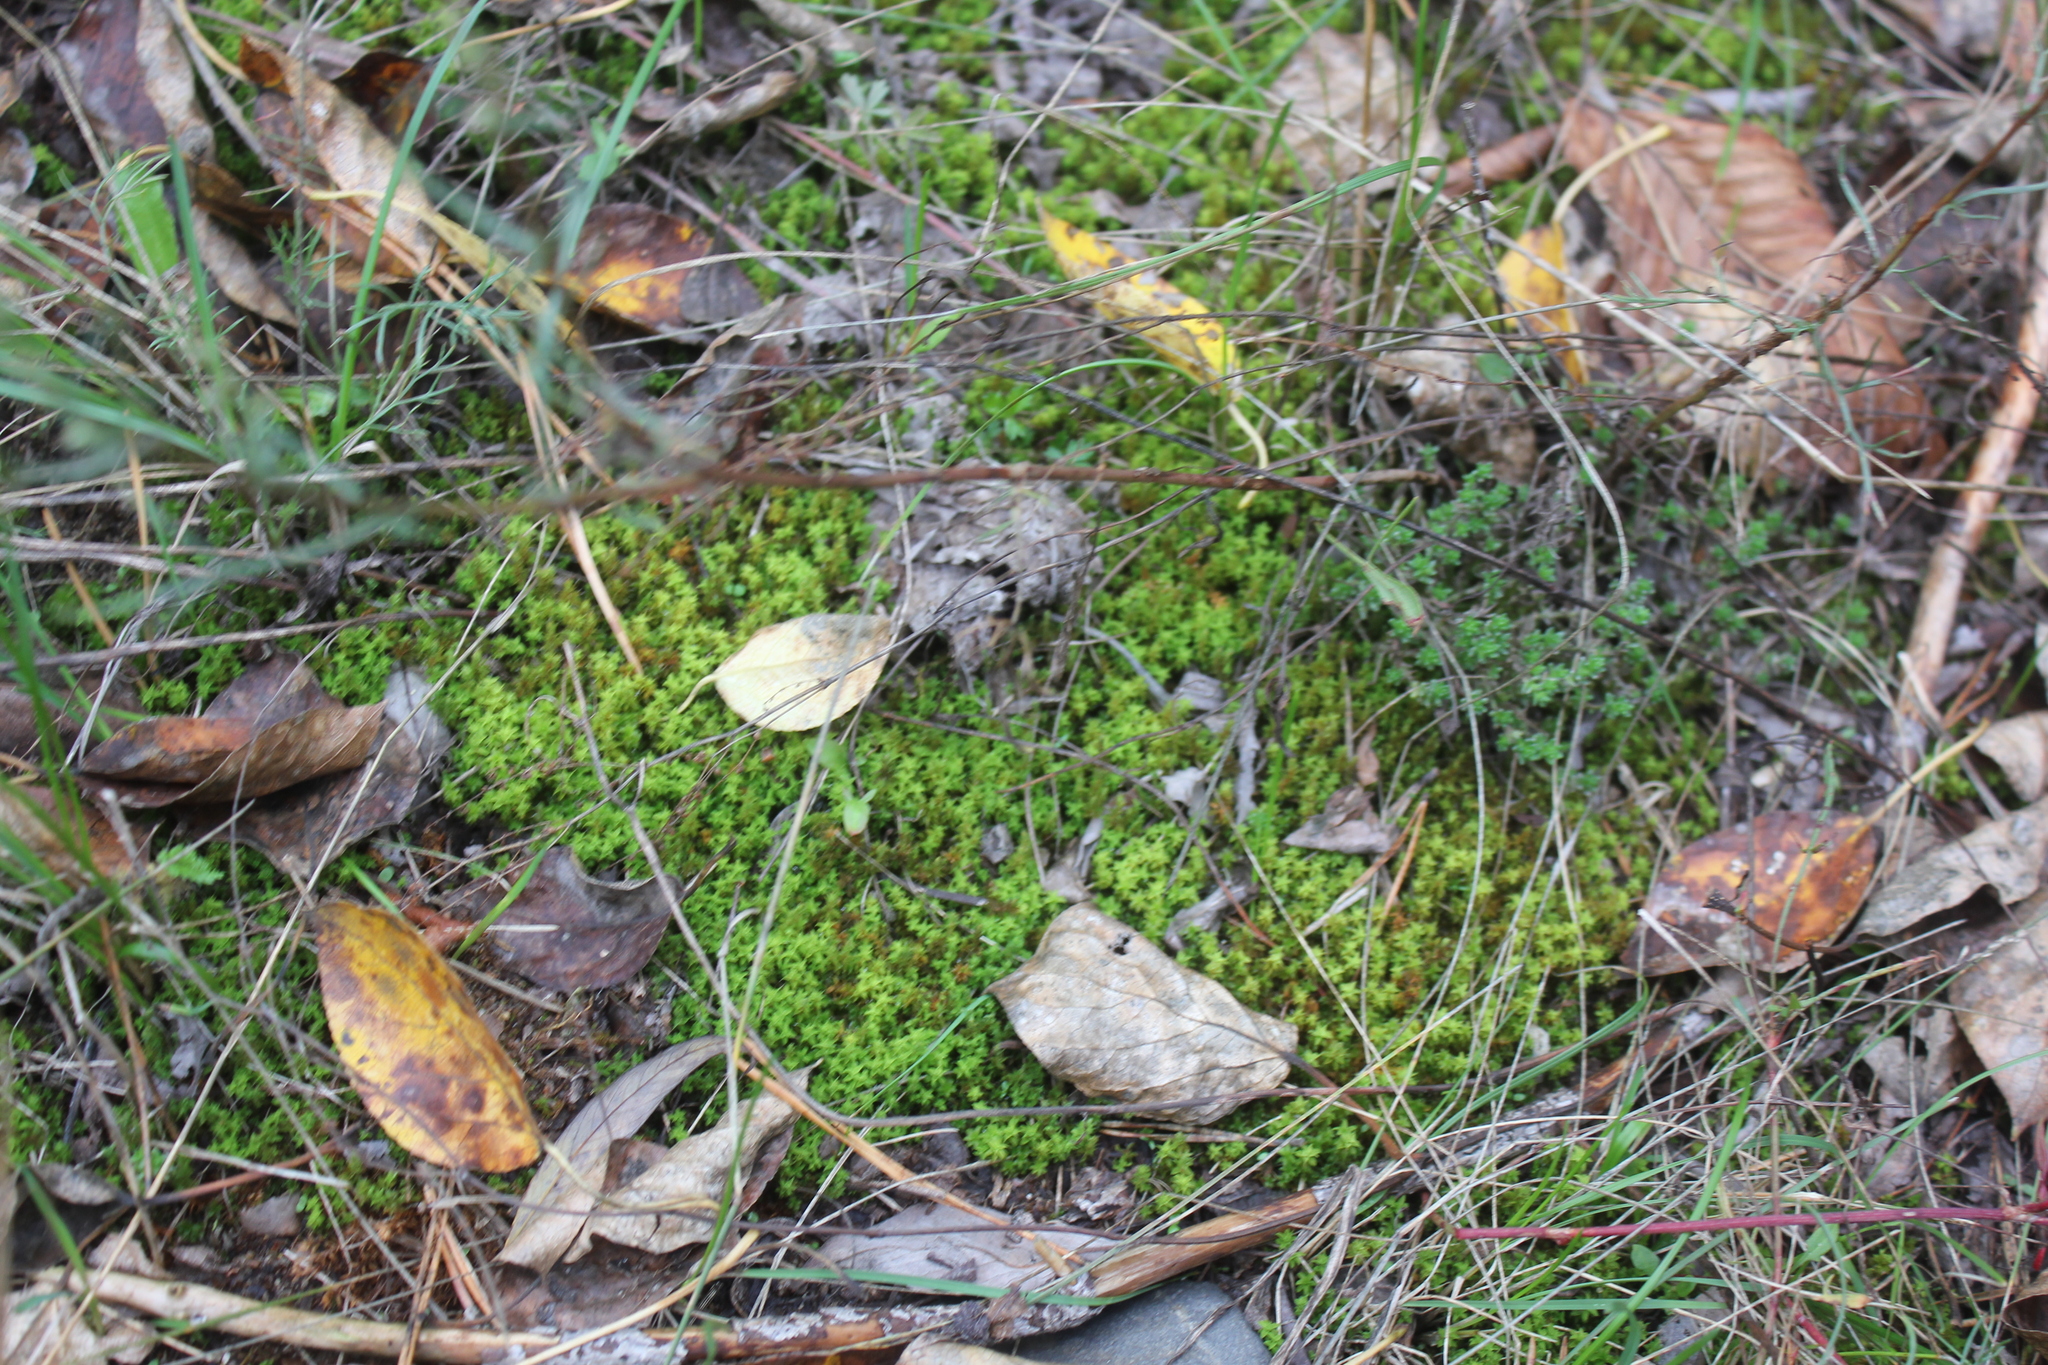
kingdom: Plantae
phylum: Bryophyta
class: Bryopsida
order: Pottiales
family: Pottiaceae
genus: Syntrichia
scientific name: Syntrichia ruralis
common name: Sidewalk screw moss
